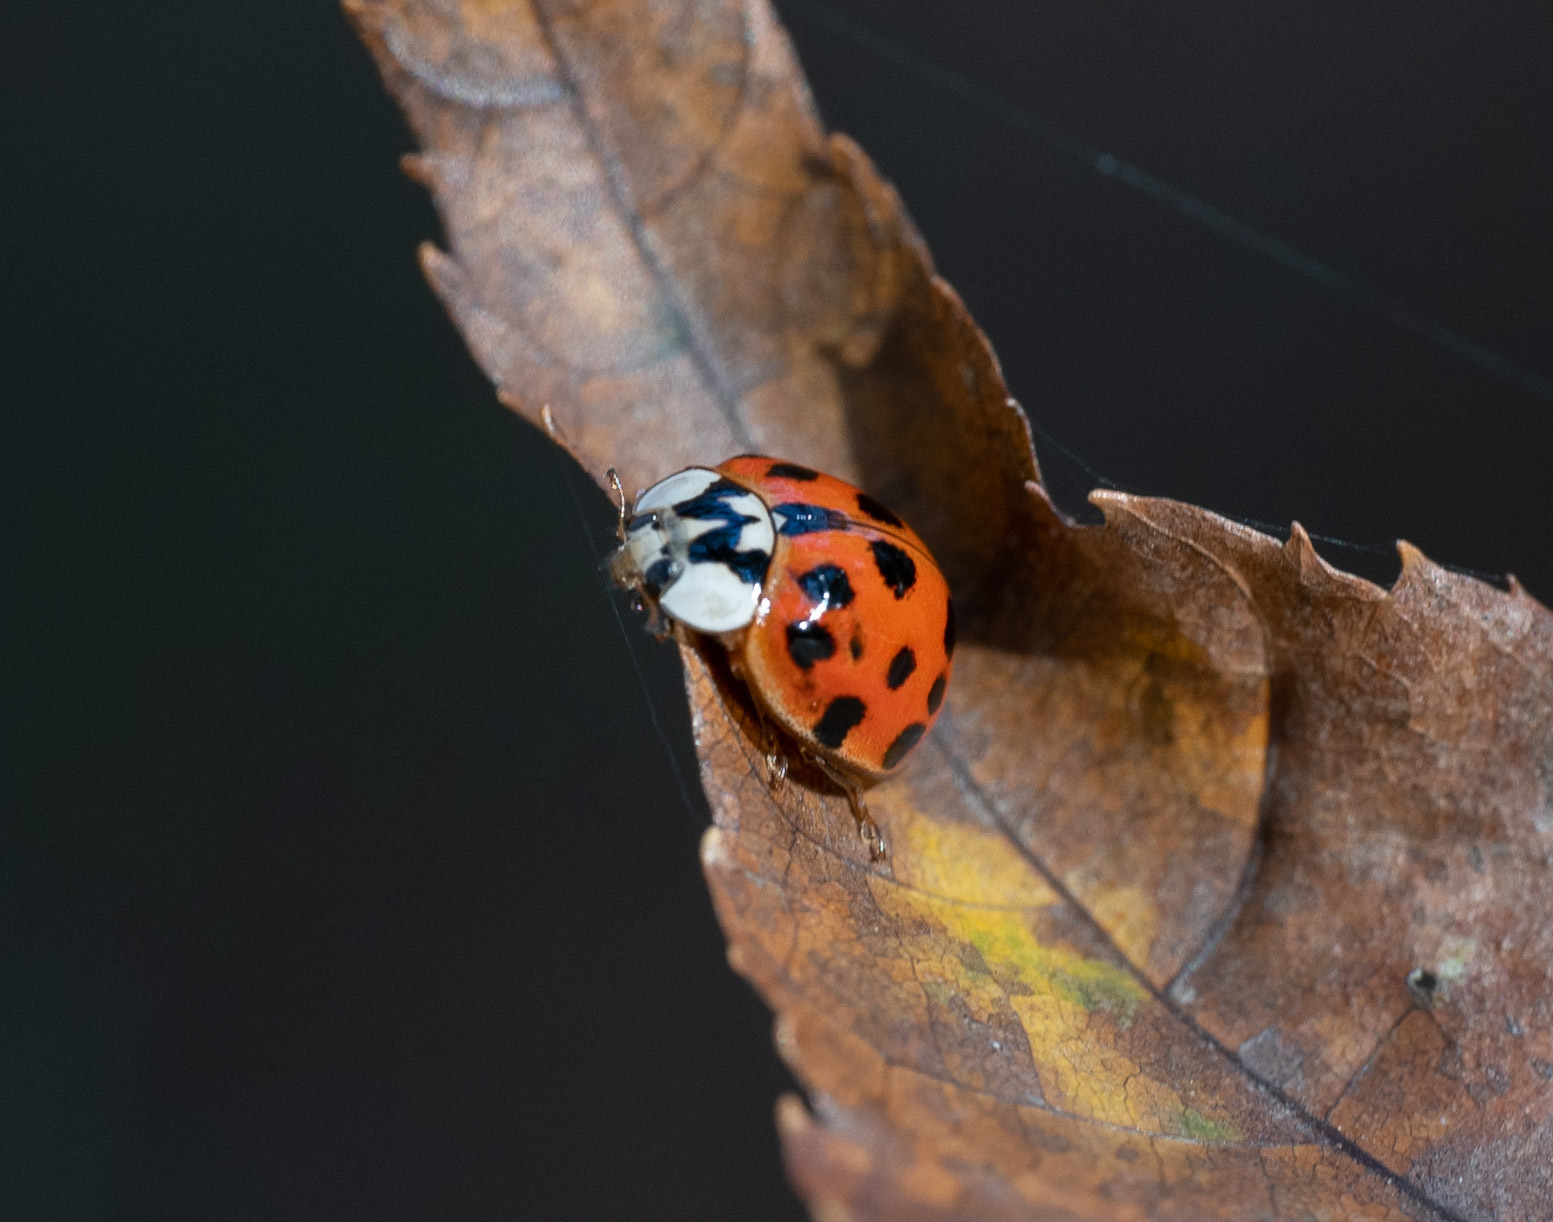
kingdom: Animalia
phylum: Arthropoda
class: Insecta
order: Coleoptera
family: Coccinellidae
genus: Harmonia
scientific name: Harmonia axyridis
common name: Harlequin ladybird
